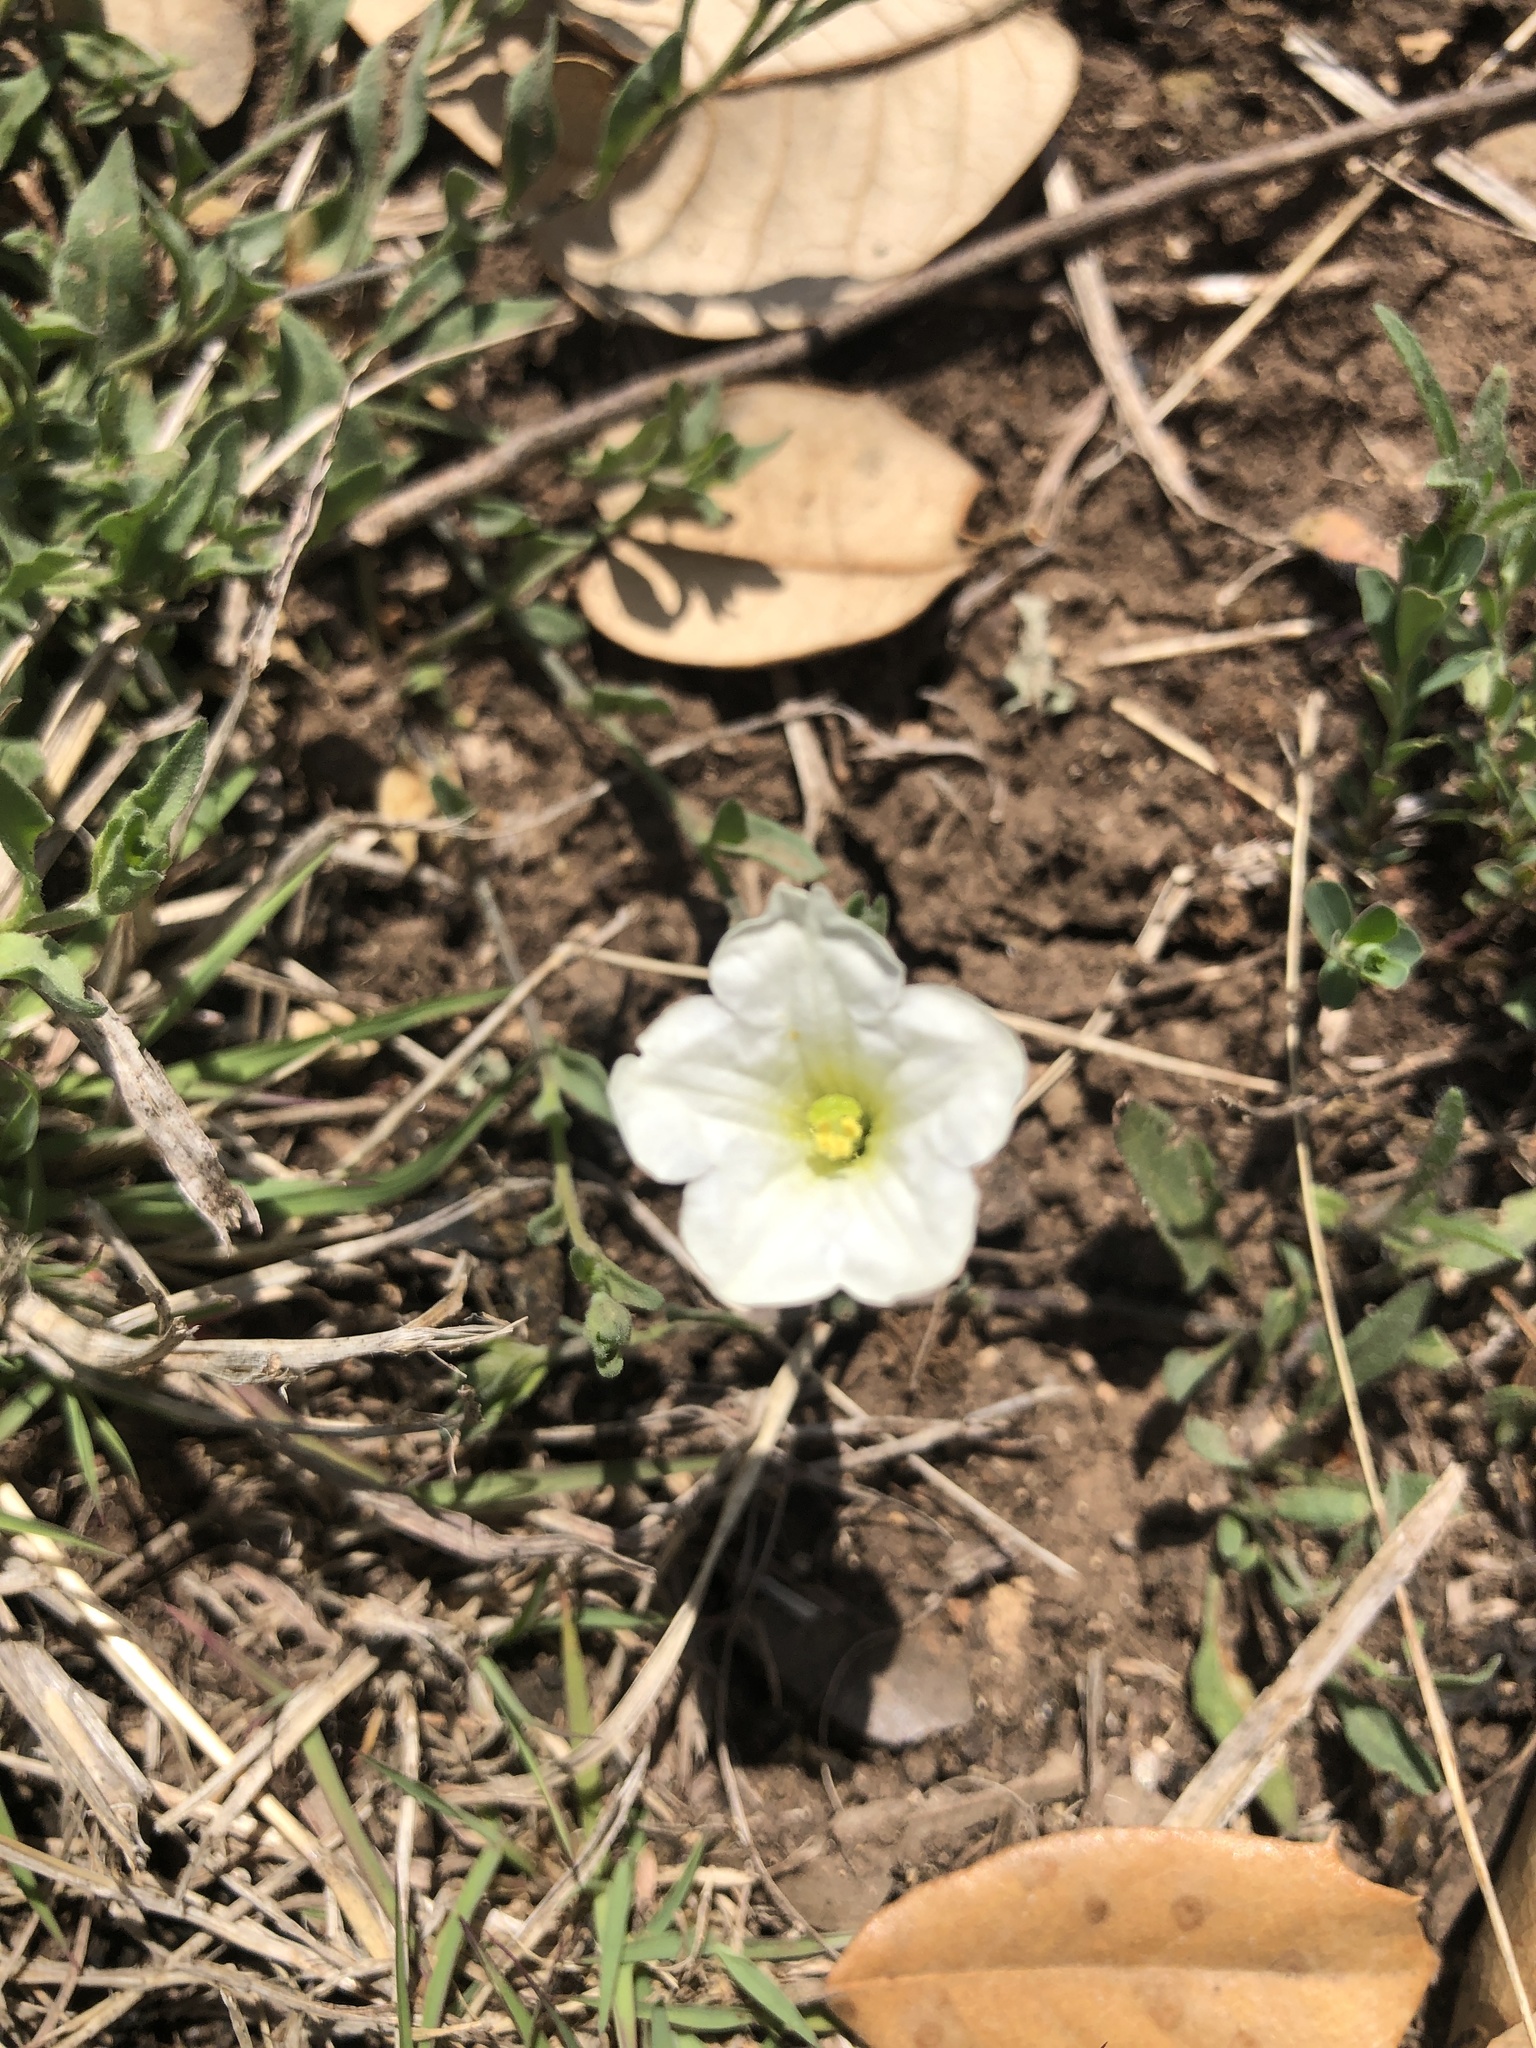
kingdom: Plantae
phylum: Tracheophyta
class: Magnoliopsida
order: Solanales
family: Solanaceae
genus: Salpiglossis
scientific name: Salpiglossis erecta
